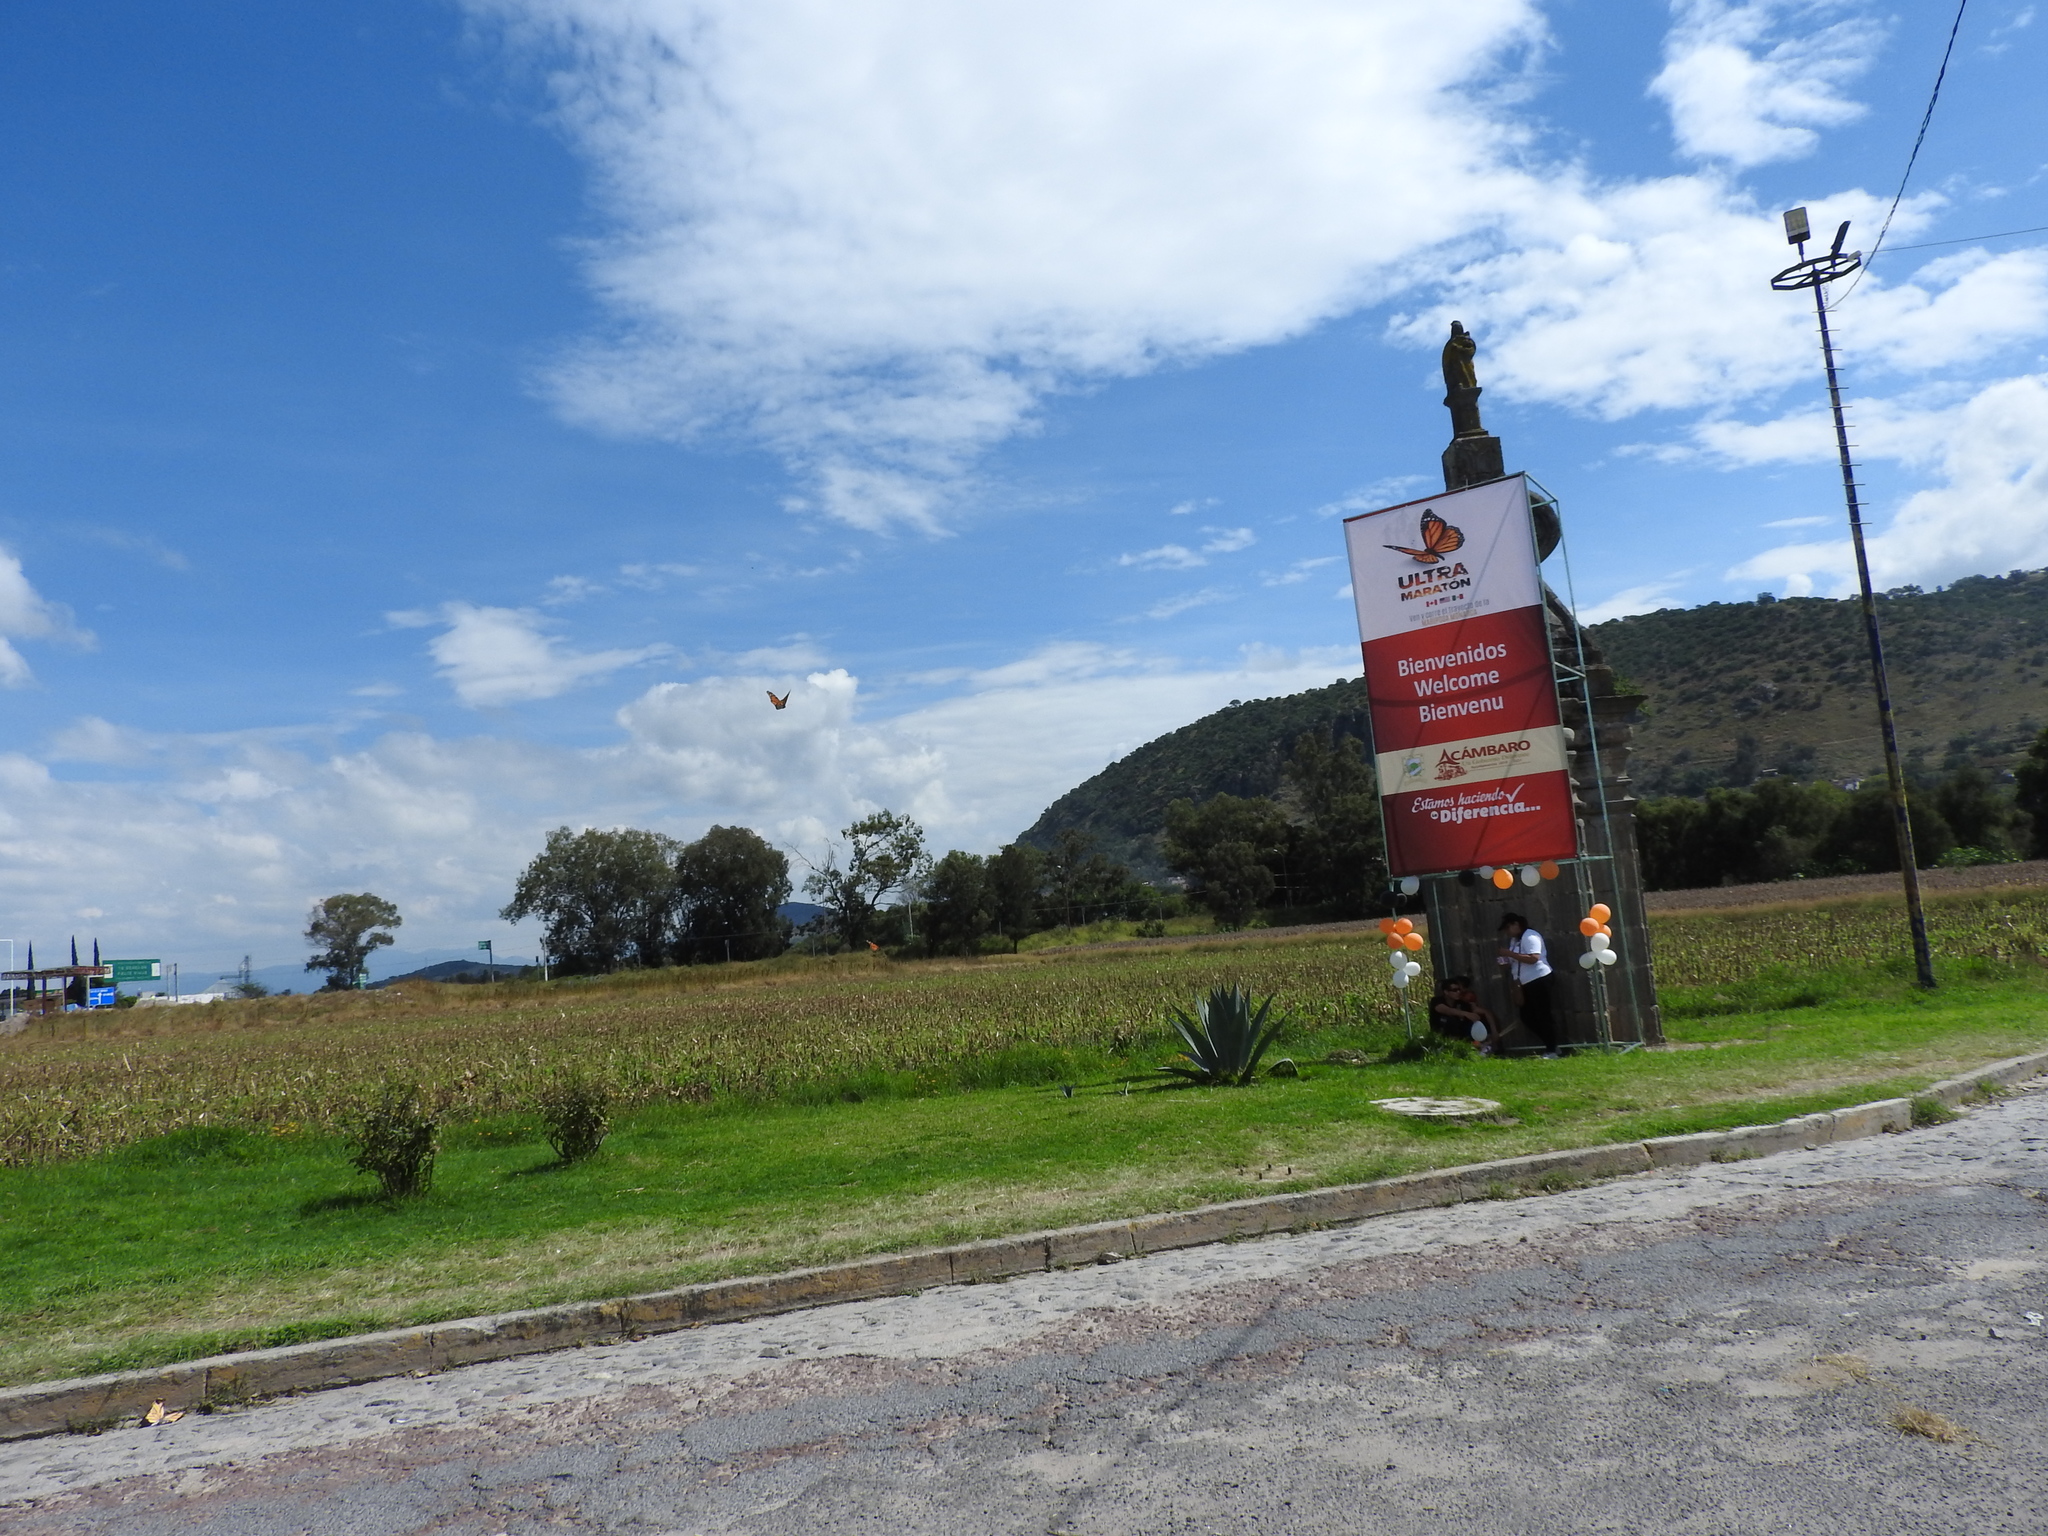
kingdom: Animalia
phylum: Arthropoda
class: Insecta
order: Lepidoptera
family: Nymphalidae
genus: Danaus
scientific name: Danaus plexippus
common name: Monarch
